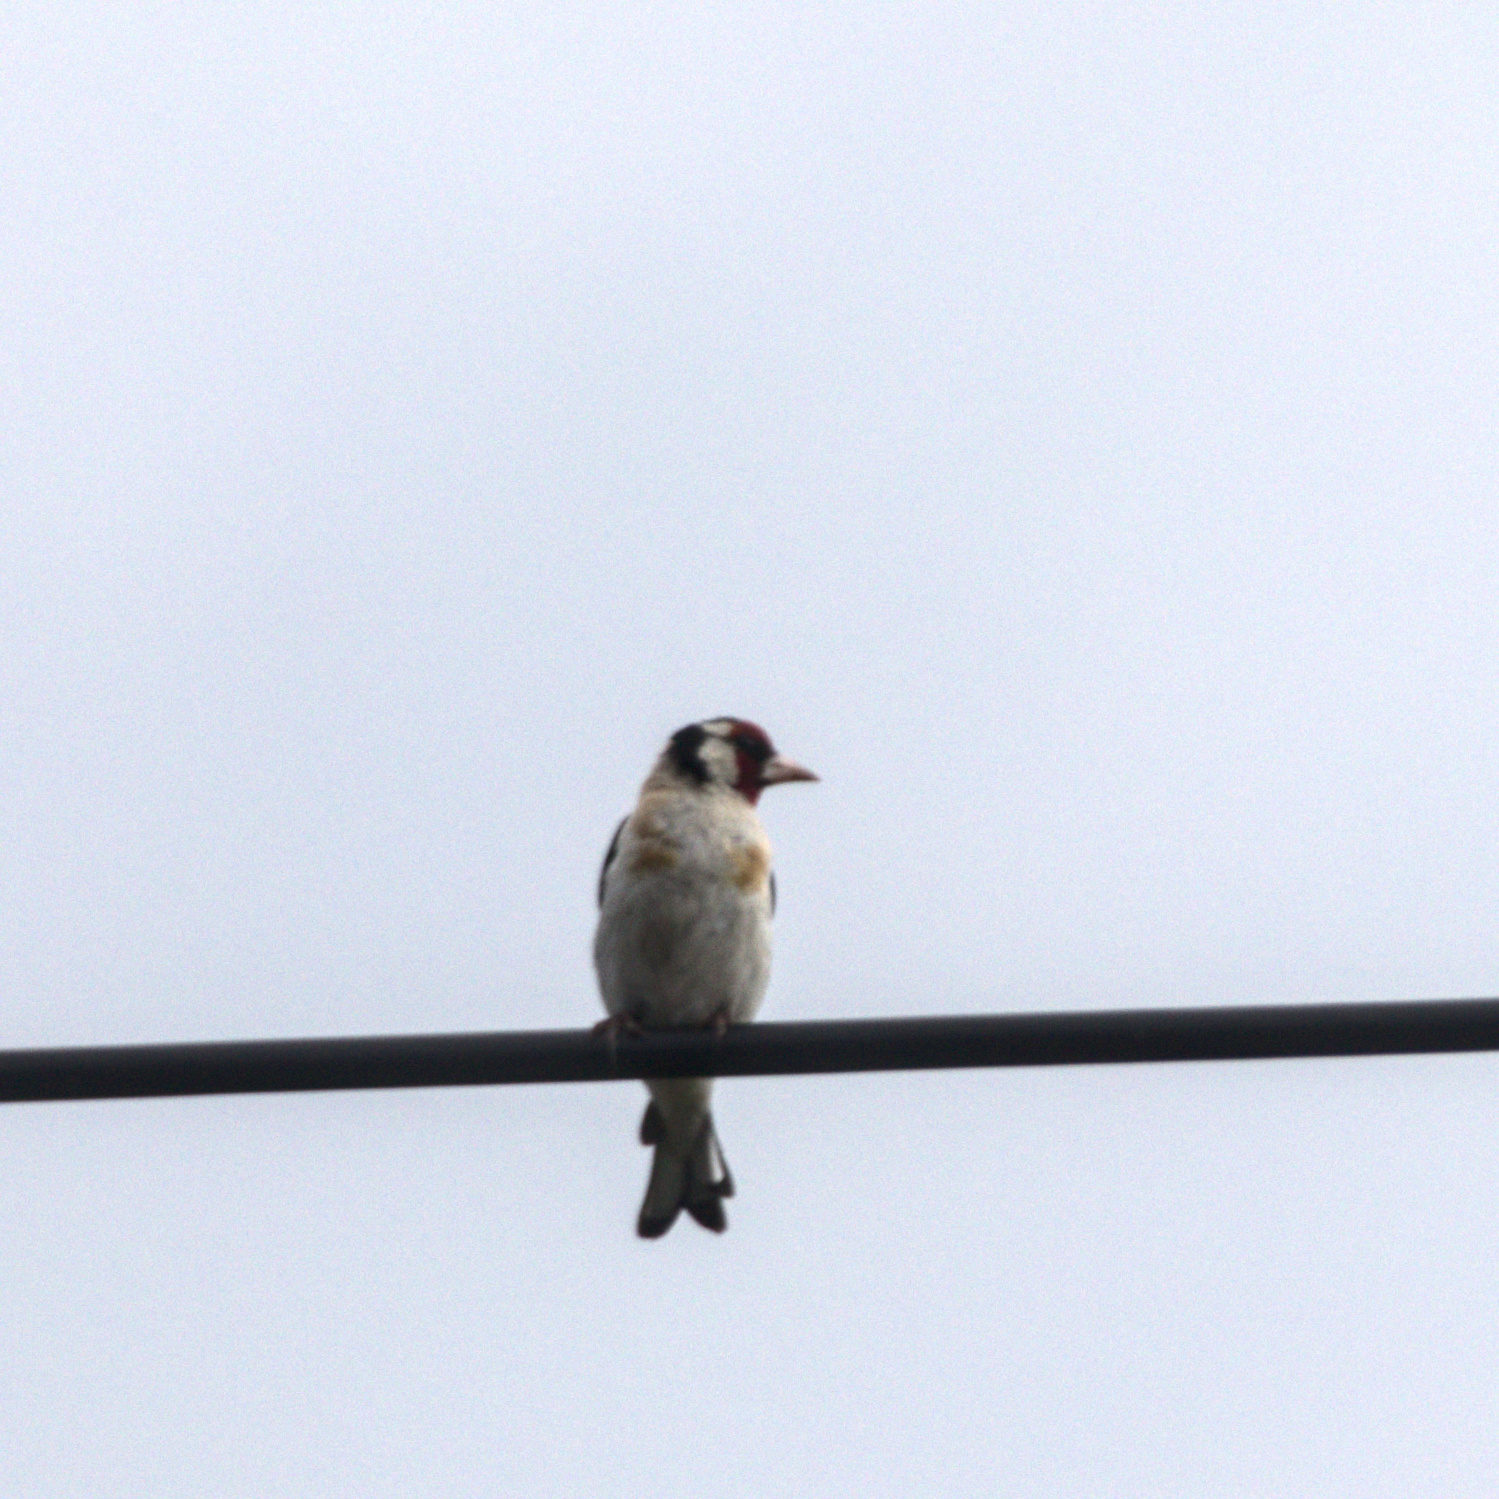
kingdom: Animalia
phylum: Chordata
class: Aves
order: Passeriformes
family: Fringillidae
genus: Carduelis
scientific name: Carduelis carduelis
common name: European goldfinch
